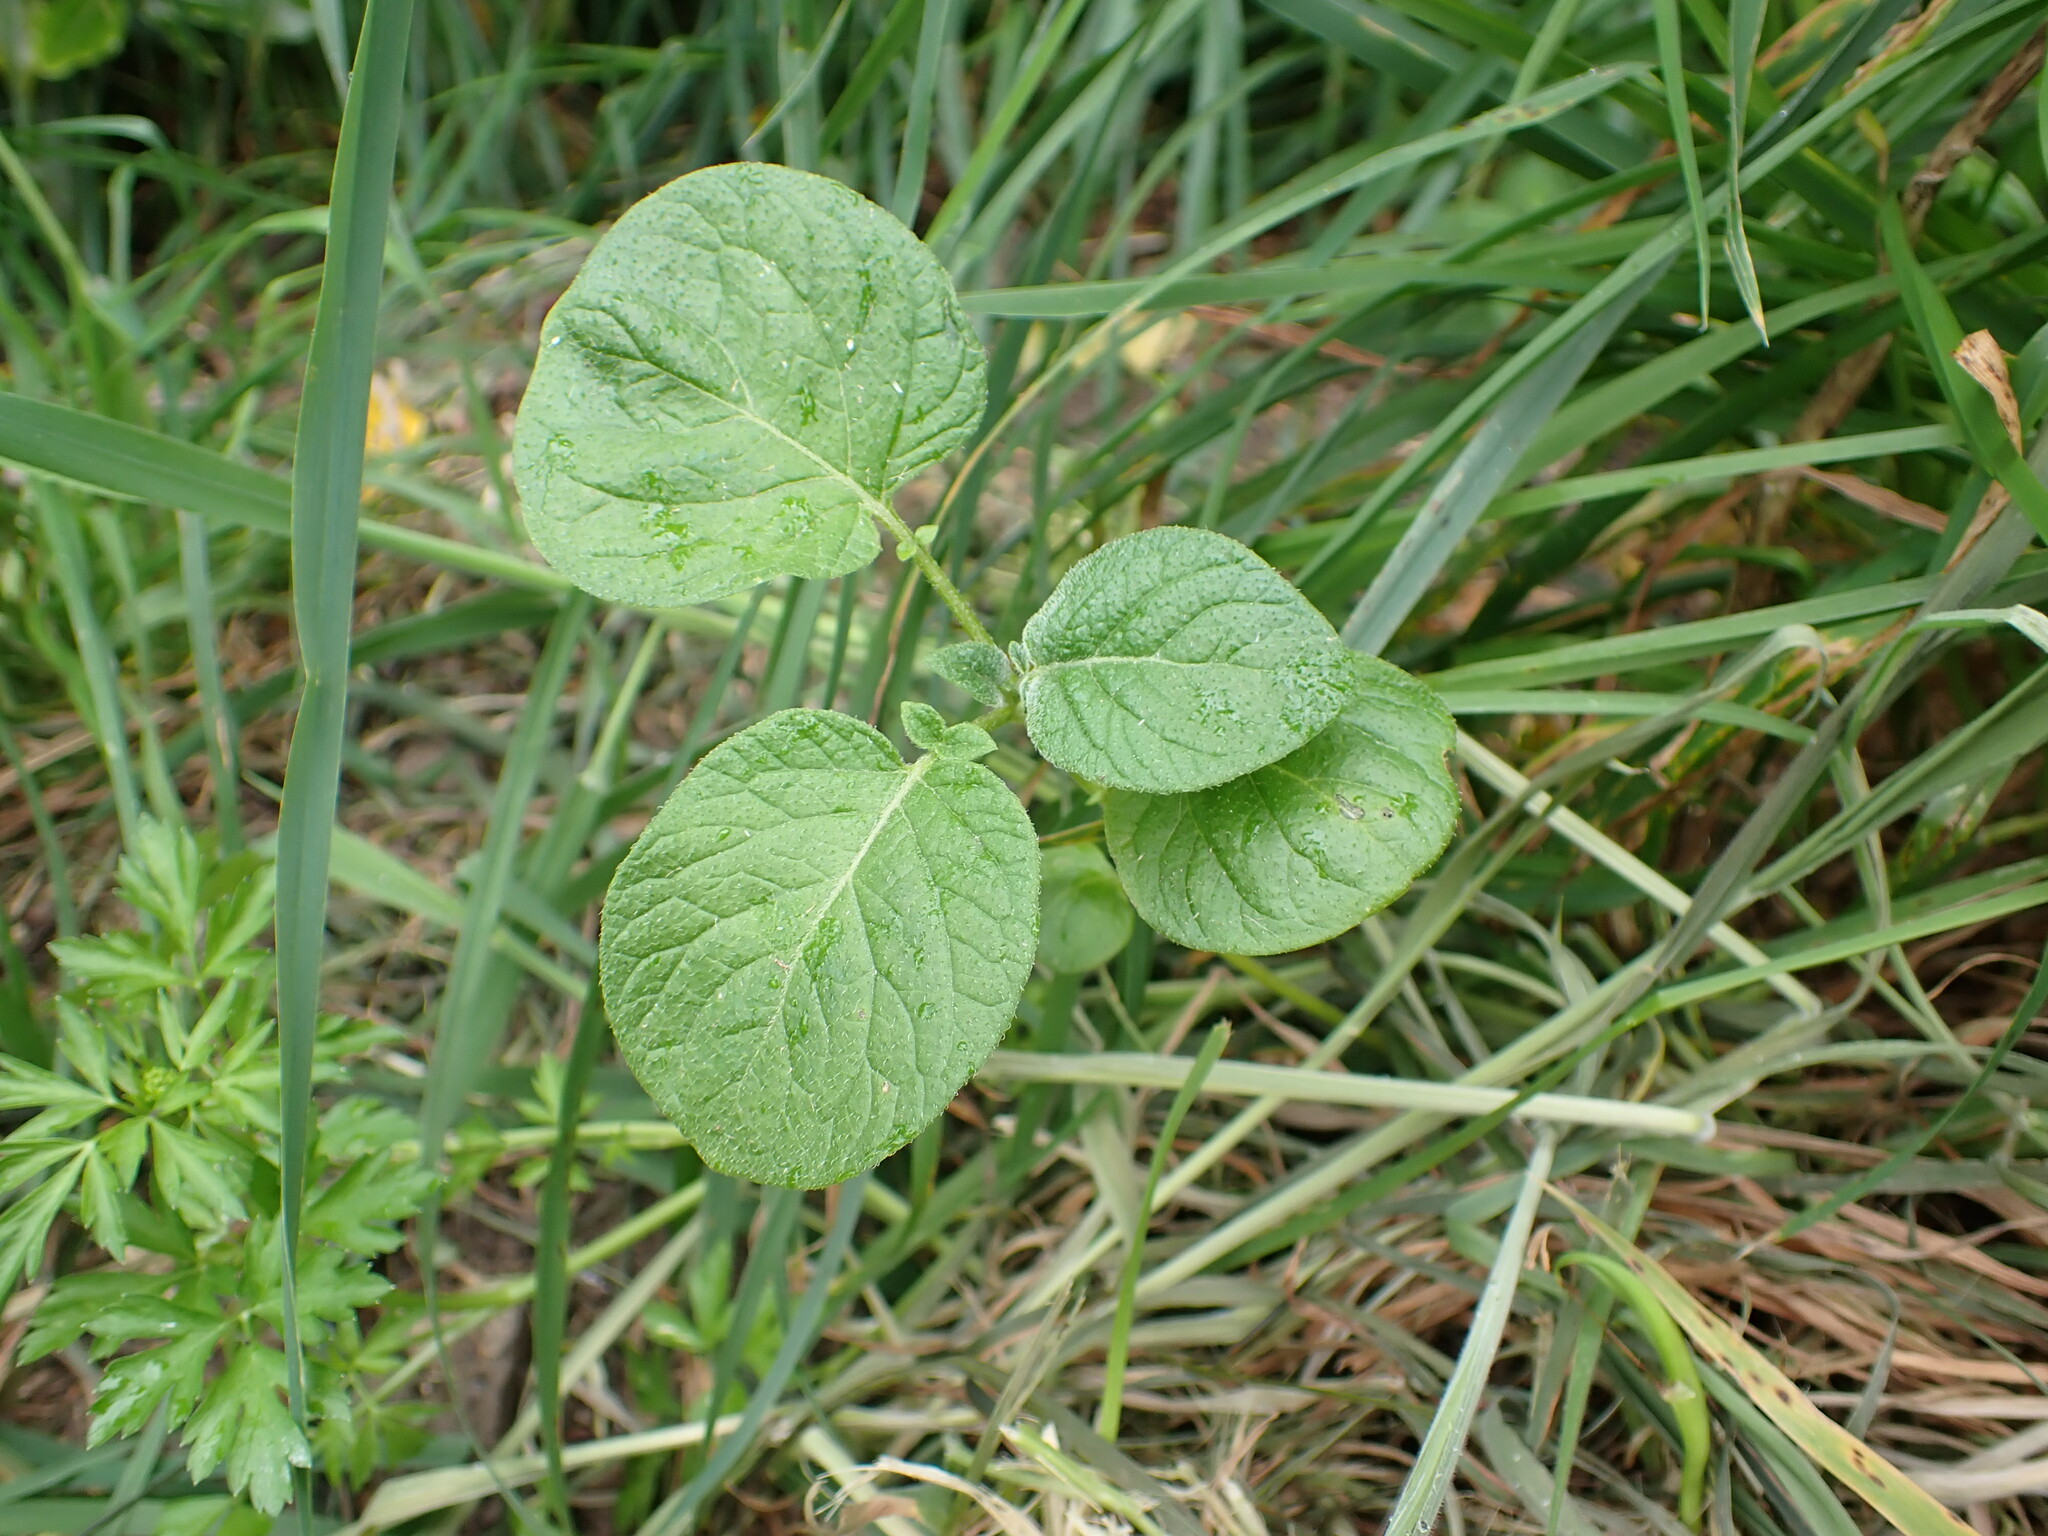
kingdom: Plantae
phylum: Tracheophyta
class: Magnoliopsida
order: Solanales
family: Solanaceae
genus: Solanum
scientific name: Solanum tuberosum
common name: Potato
